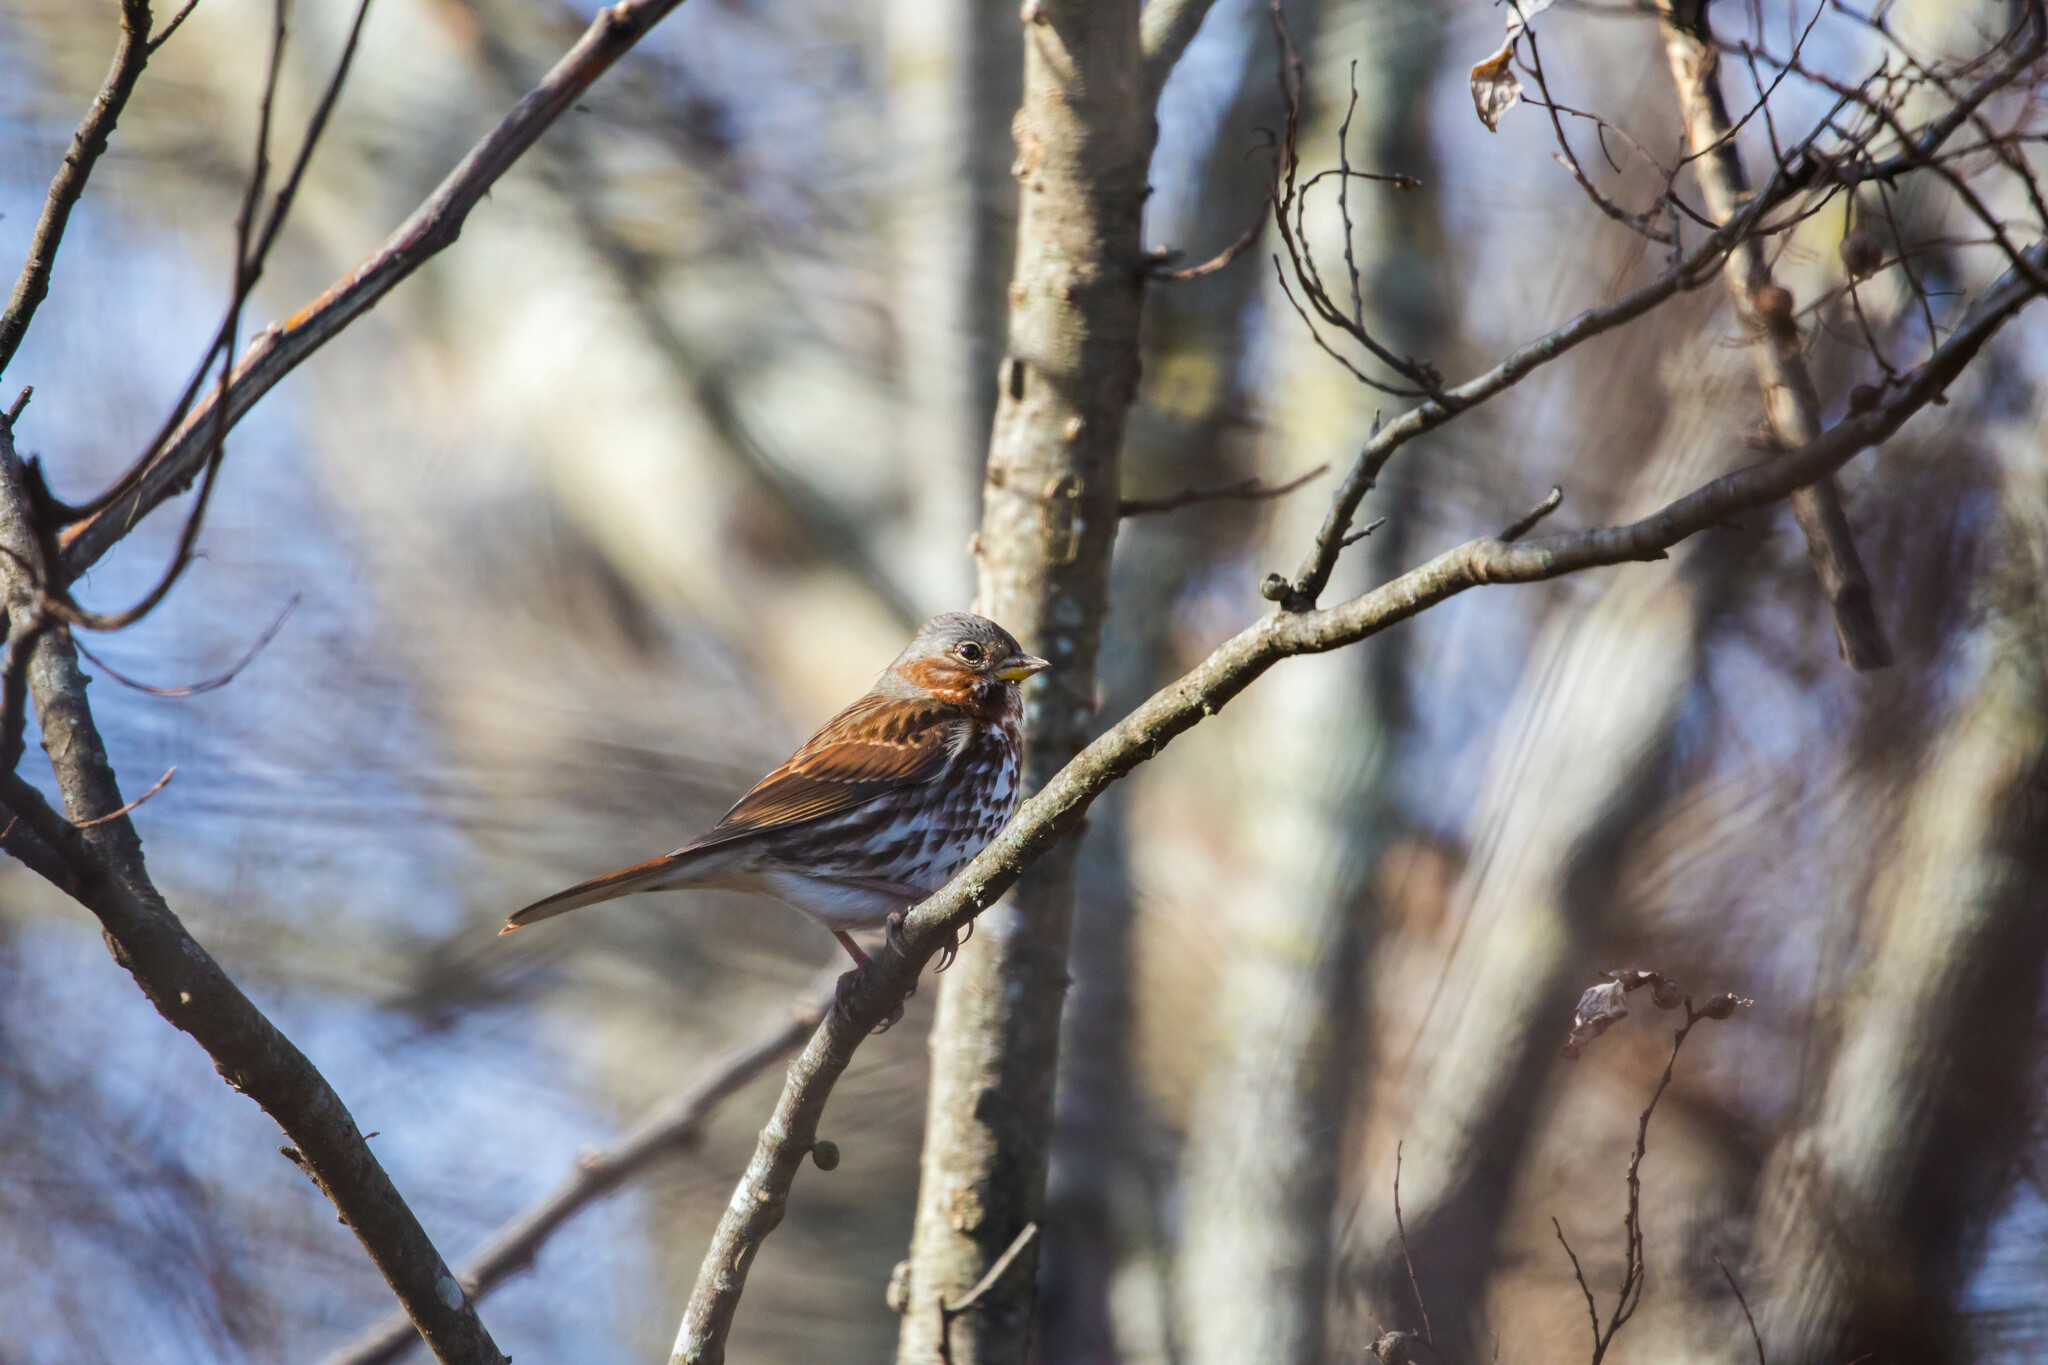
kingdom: Animalia
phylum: Chordata
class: Aves
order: Passeriformes
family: Passerellidae
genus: Passerella
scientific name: Passerella iliaca
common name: Fox sparrow
